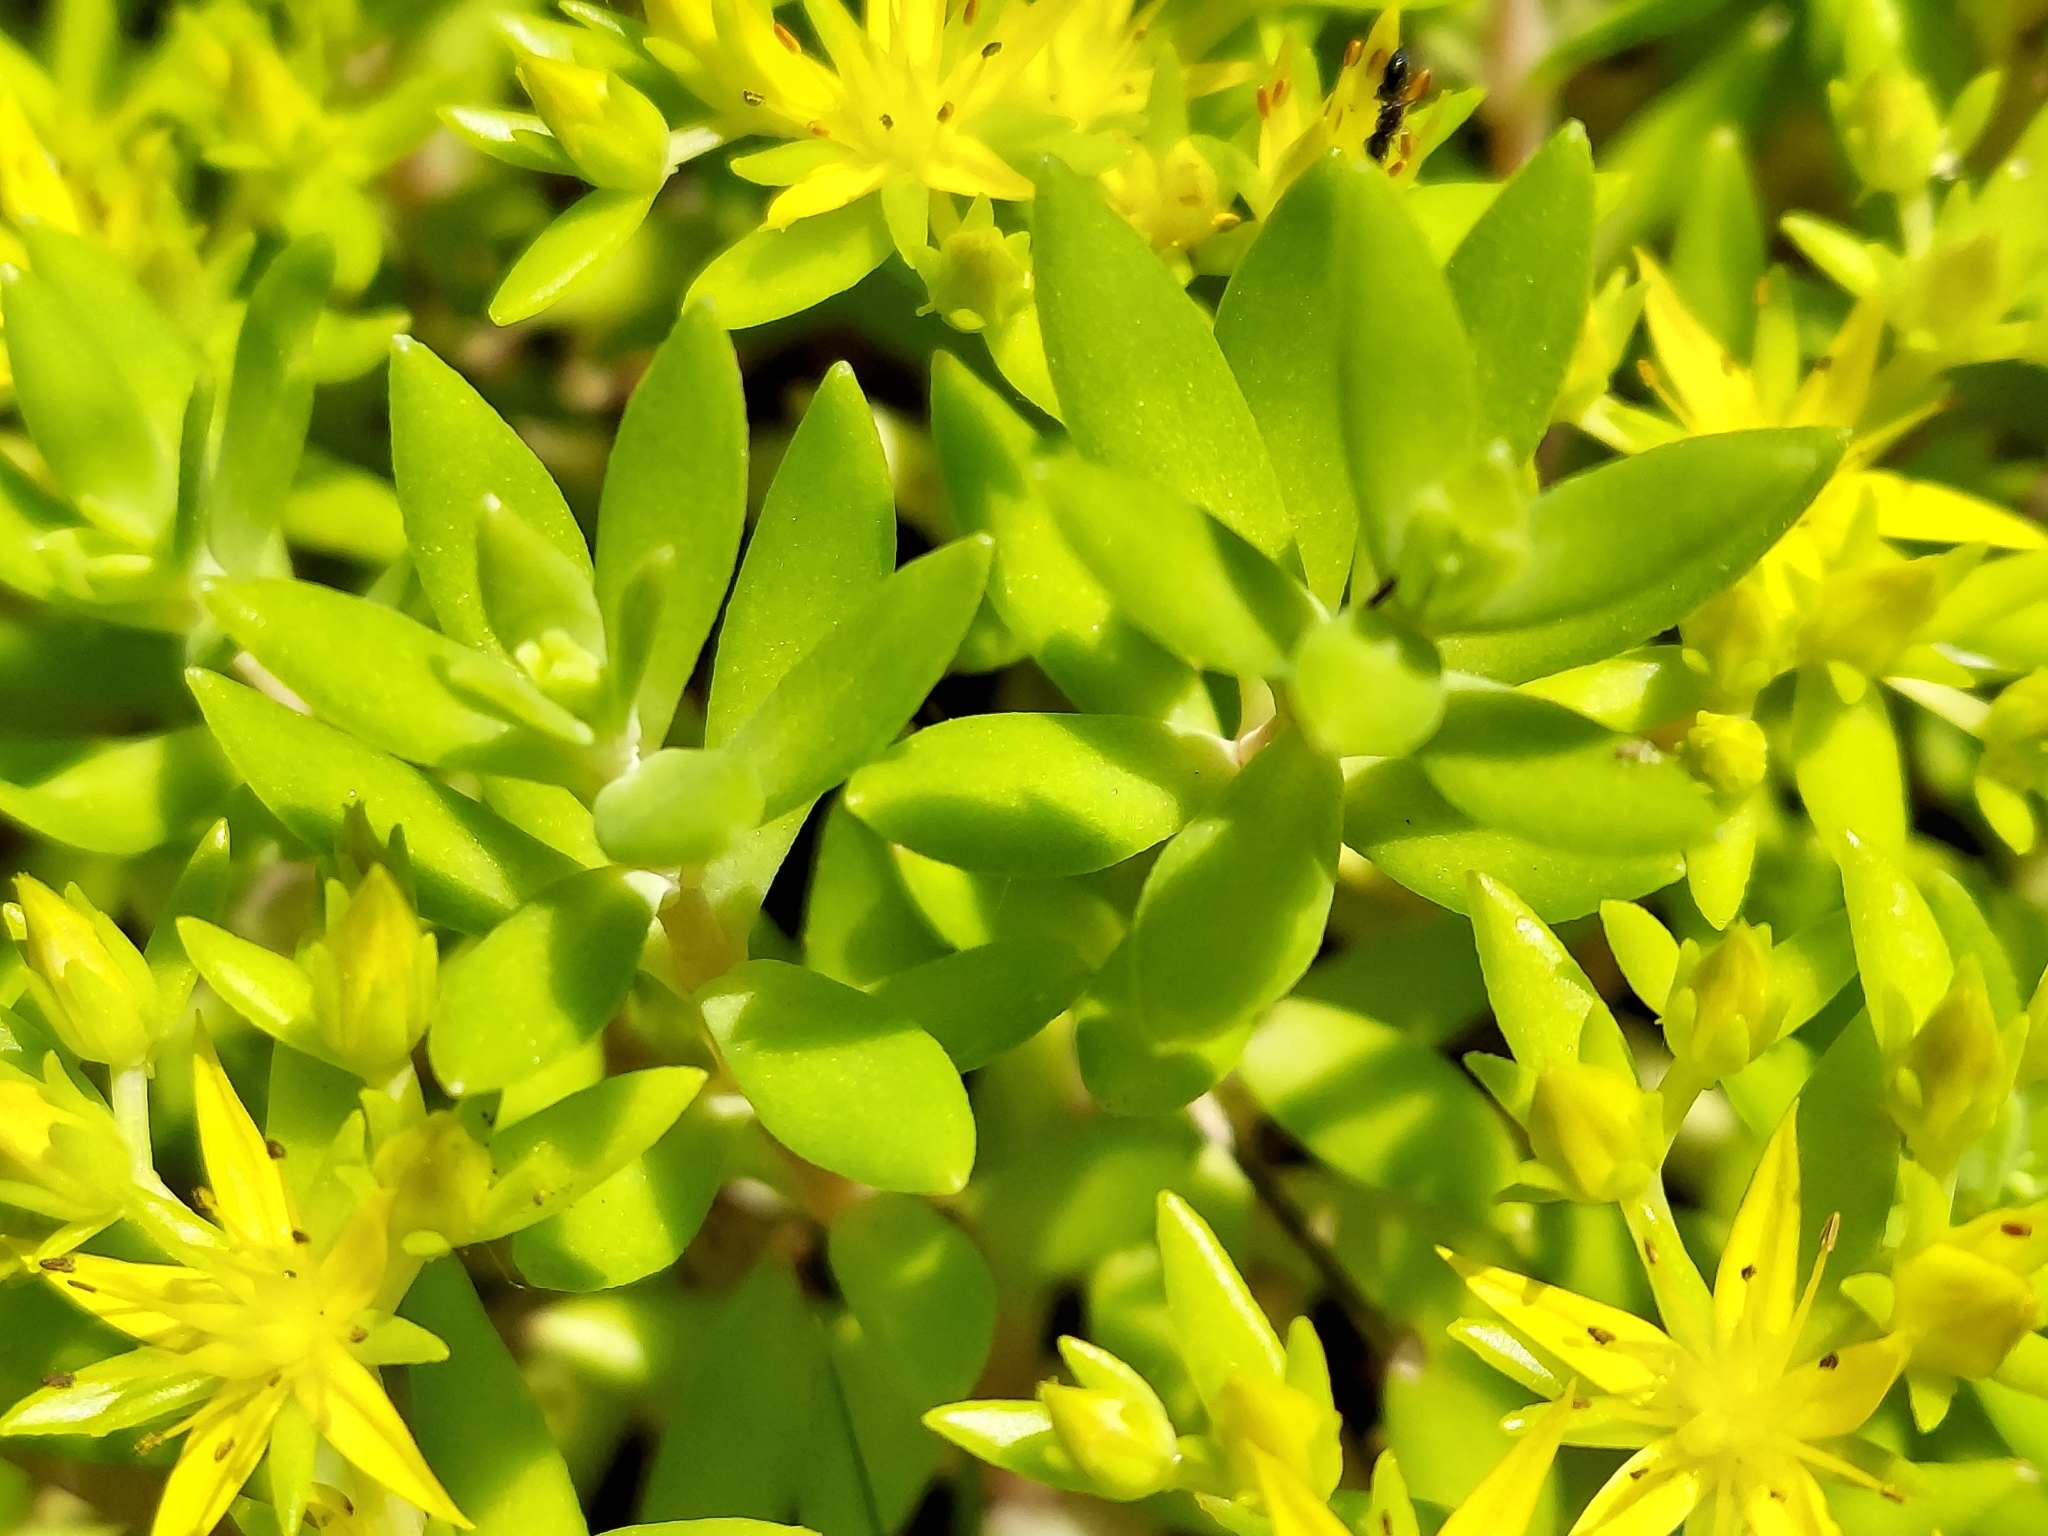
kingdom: Plantae
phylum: Tracheophyta
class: Magnoliopsida
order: Saxifragales
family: Crassulaceae
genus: Sedum
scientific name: Sedum sarmentosum
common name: Stringy stonecrop
